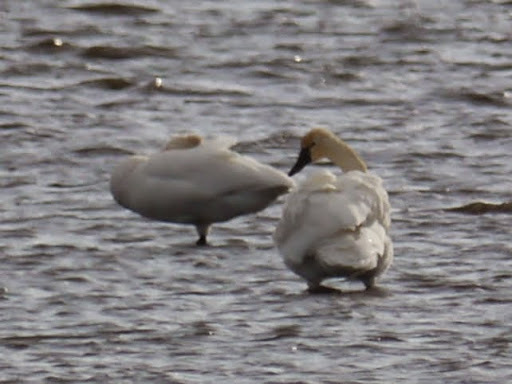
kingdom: Animalia
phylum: Chordata
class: Aves
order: Anseriformes
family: Anatidae
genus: Cygnus
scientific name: Cygnus columbianus
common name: Tundra swan
